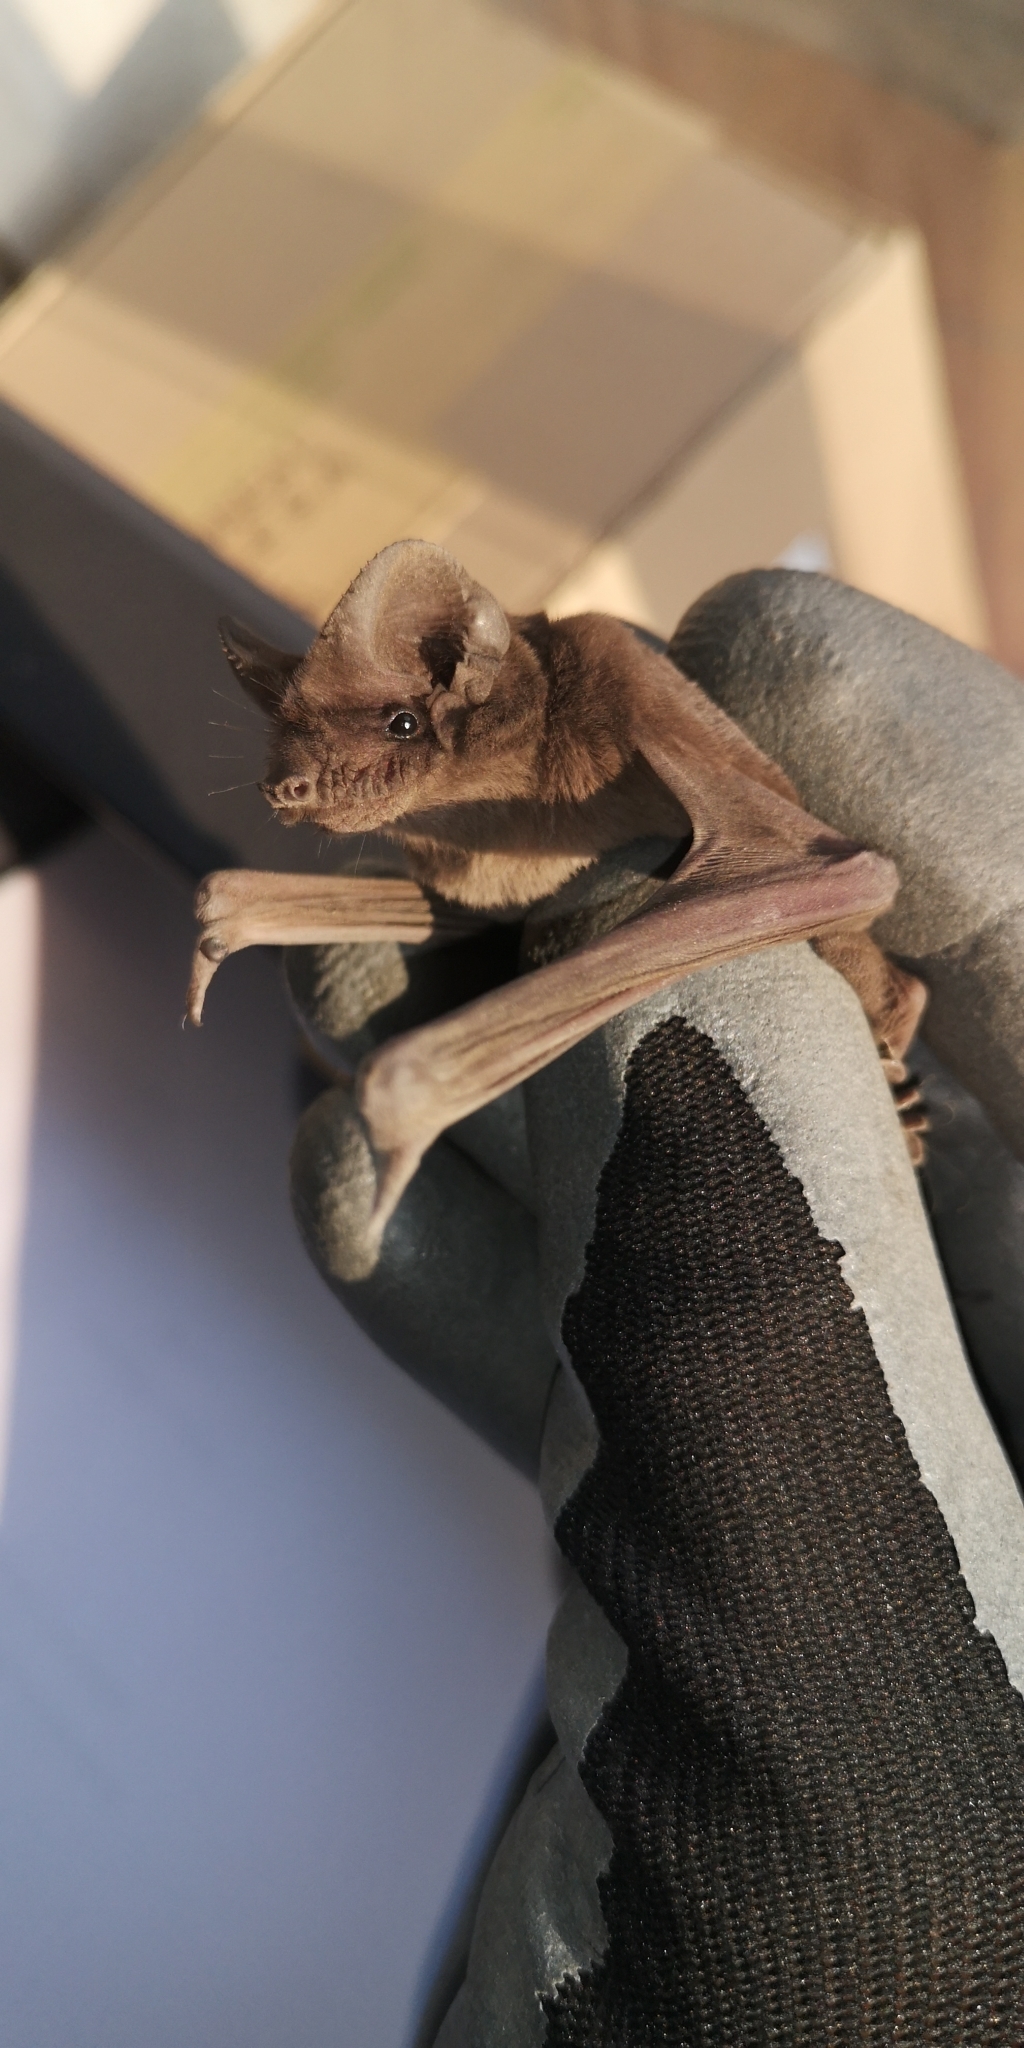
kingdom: Animalia
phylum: Chordata
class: Mammalia
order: Chiroptera
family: Molossidae
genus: Tadarida
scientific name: Tadarida brasiliensis
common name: Mexican free-tailed bat
